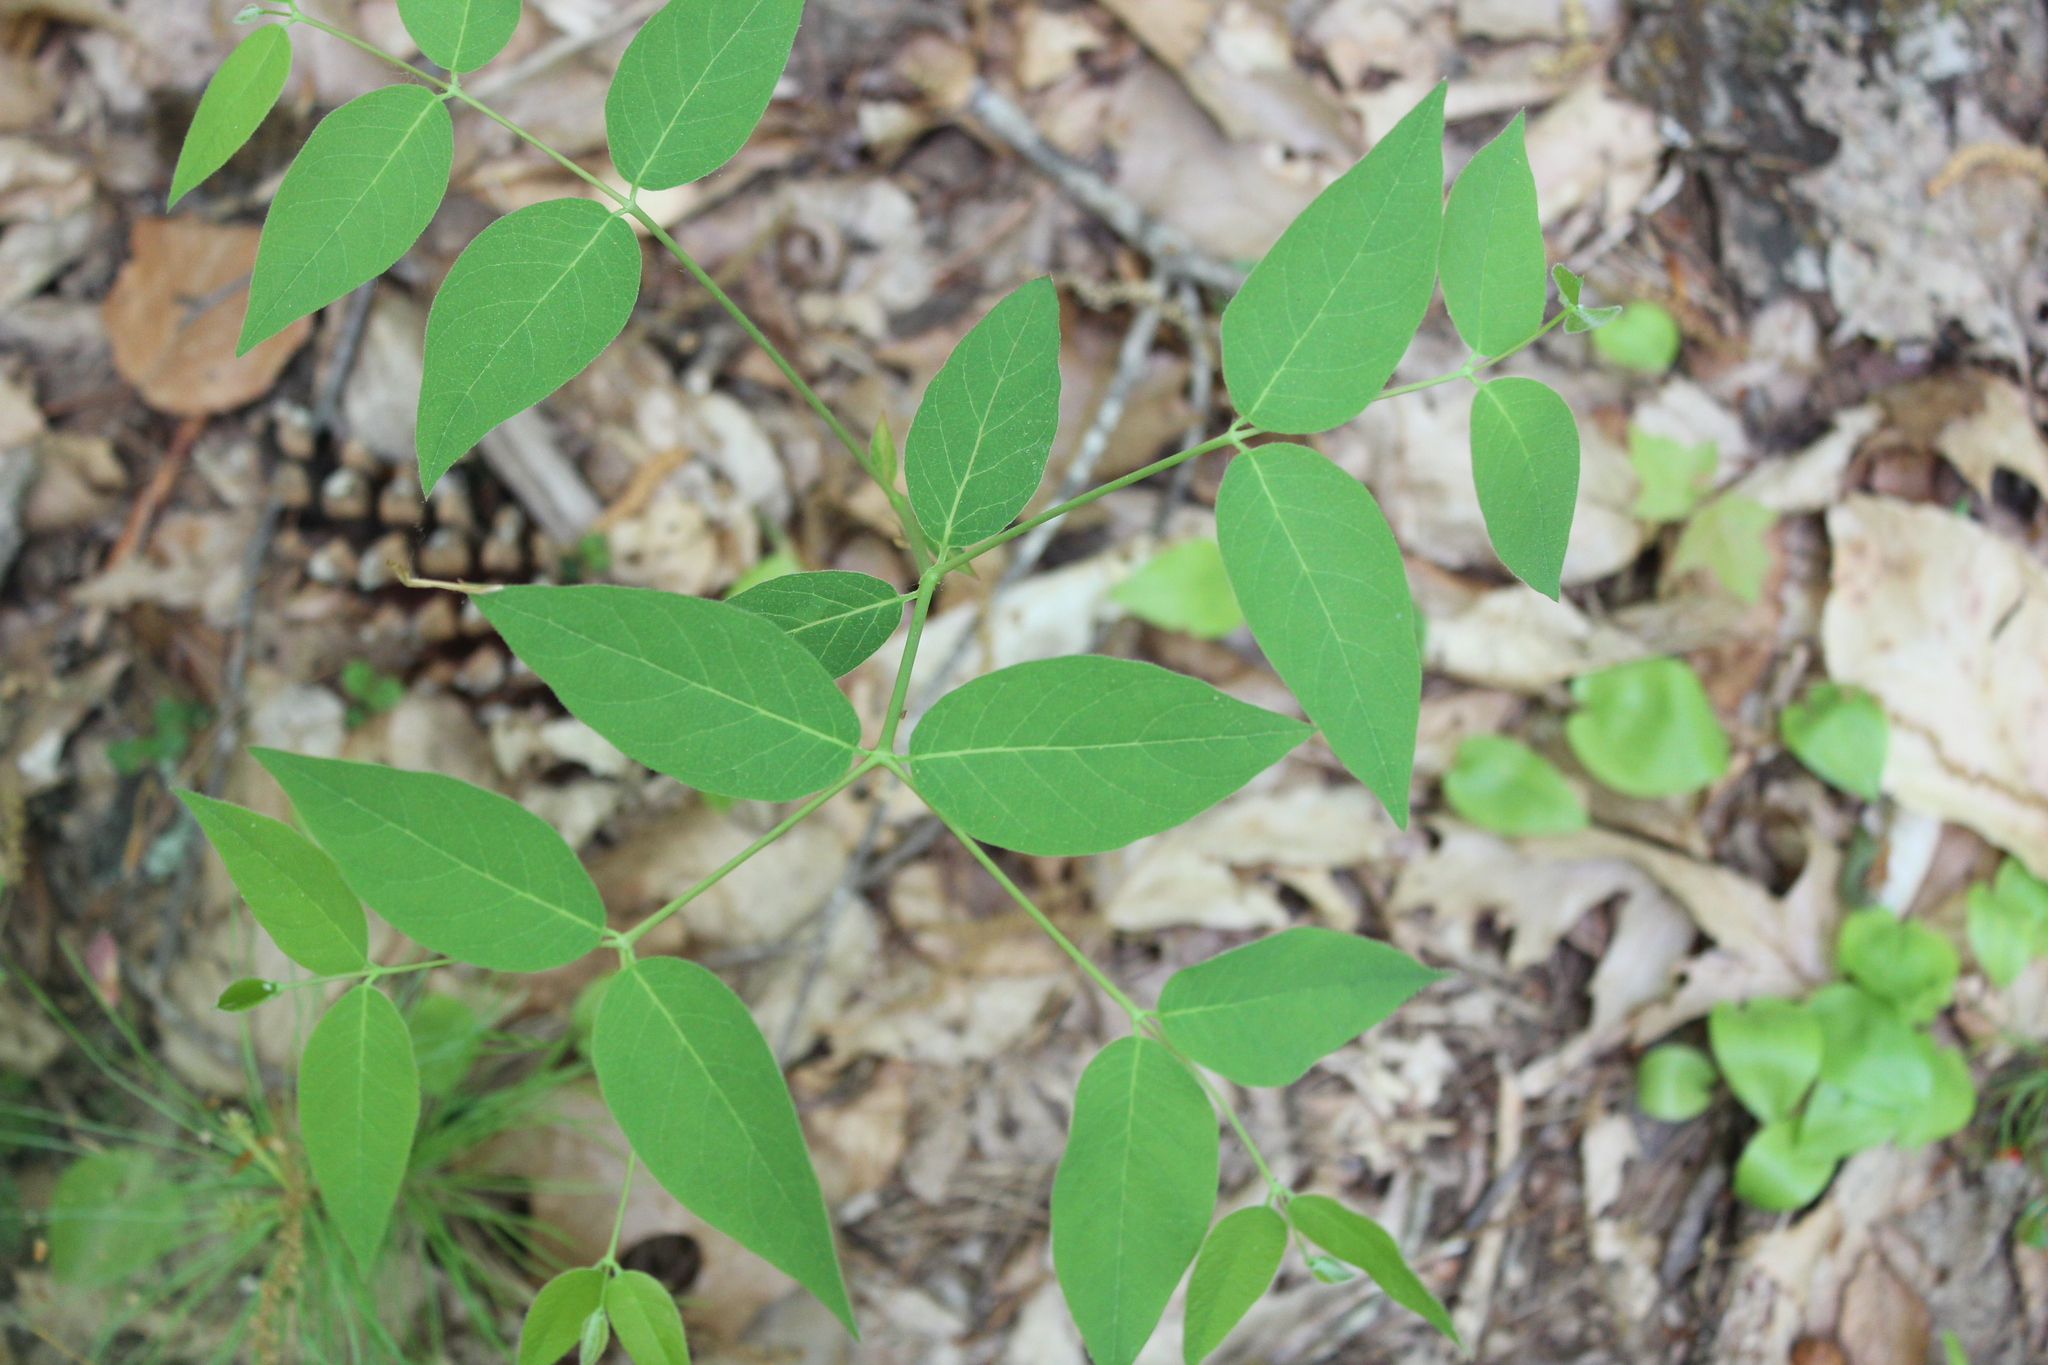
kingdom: Plantae
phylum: Tracheophyta
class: Magnoliopsida
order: Gentianales
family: Apocynaceae
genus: Apocynum
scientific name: Apocynum androsaemifolium
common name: Spreading dogbane
